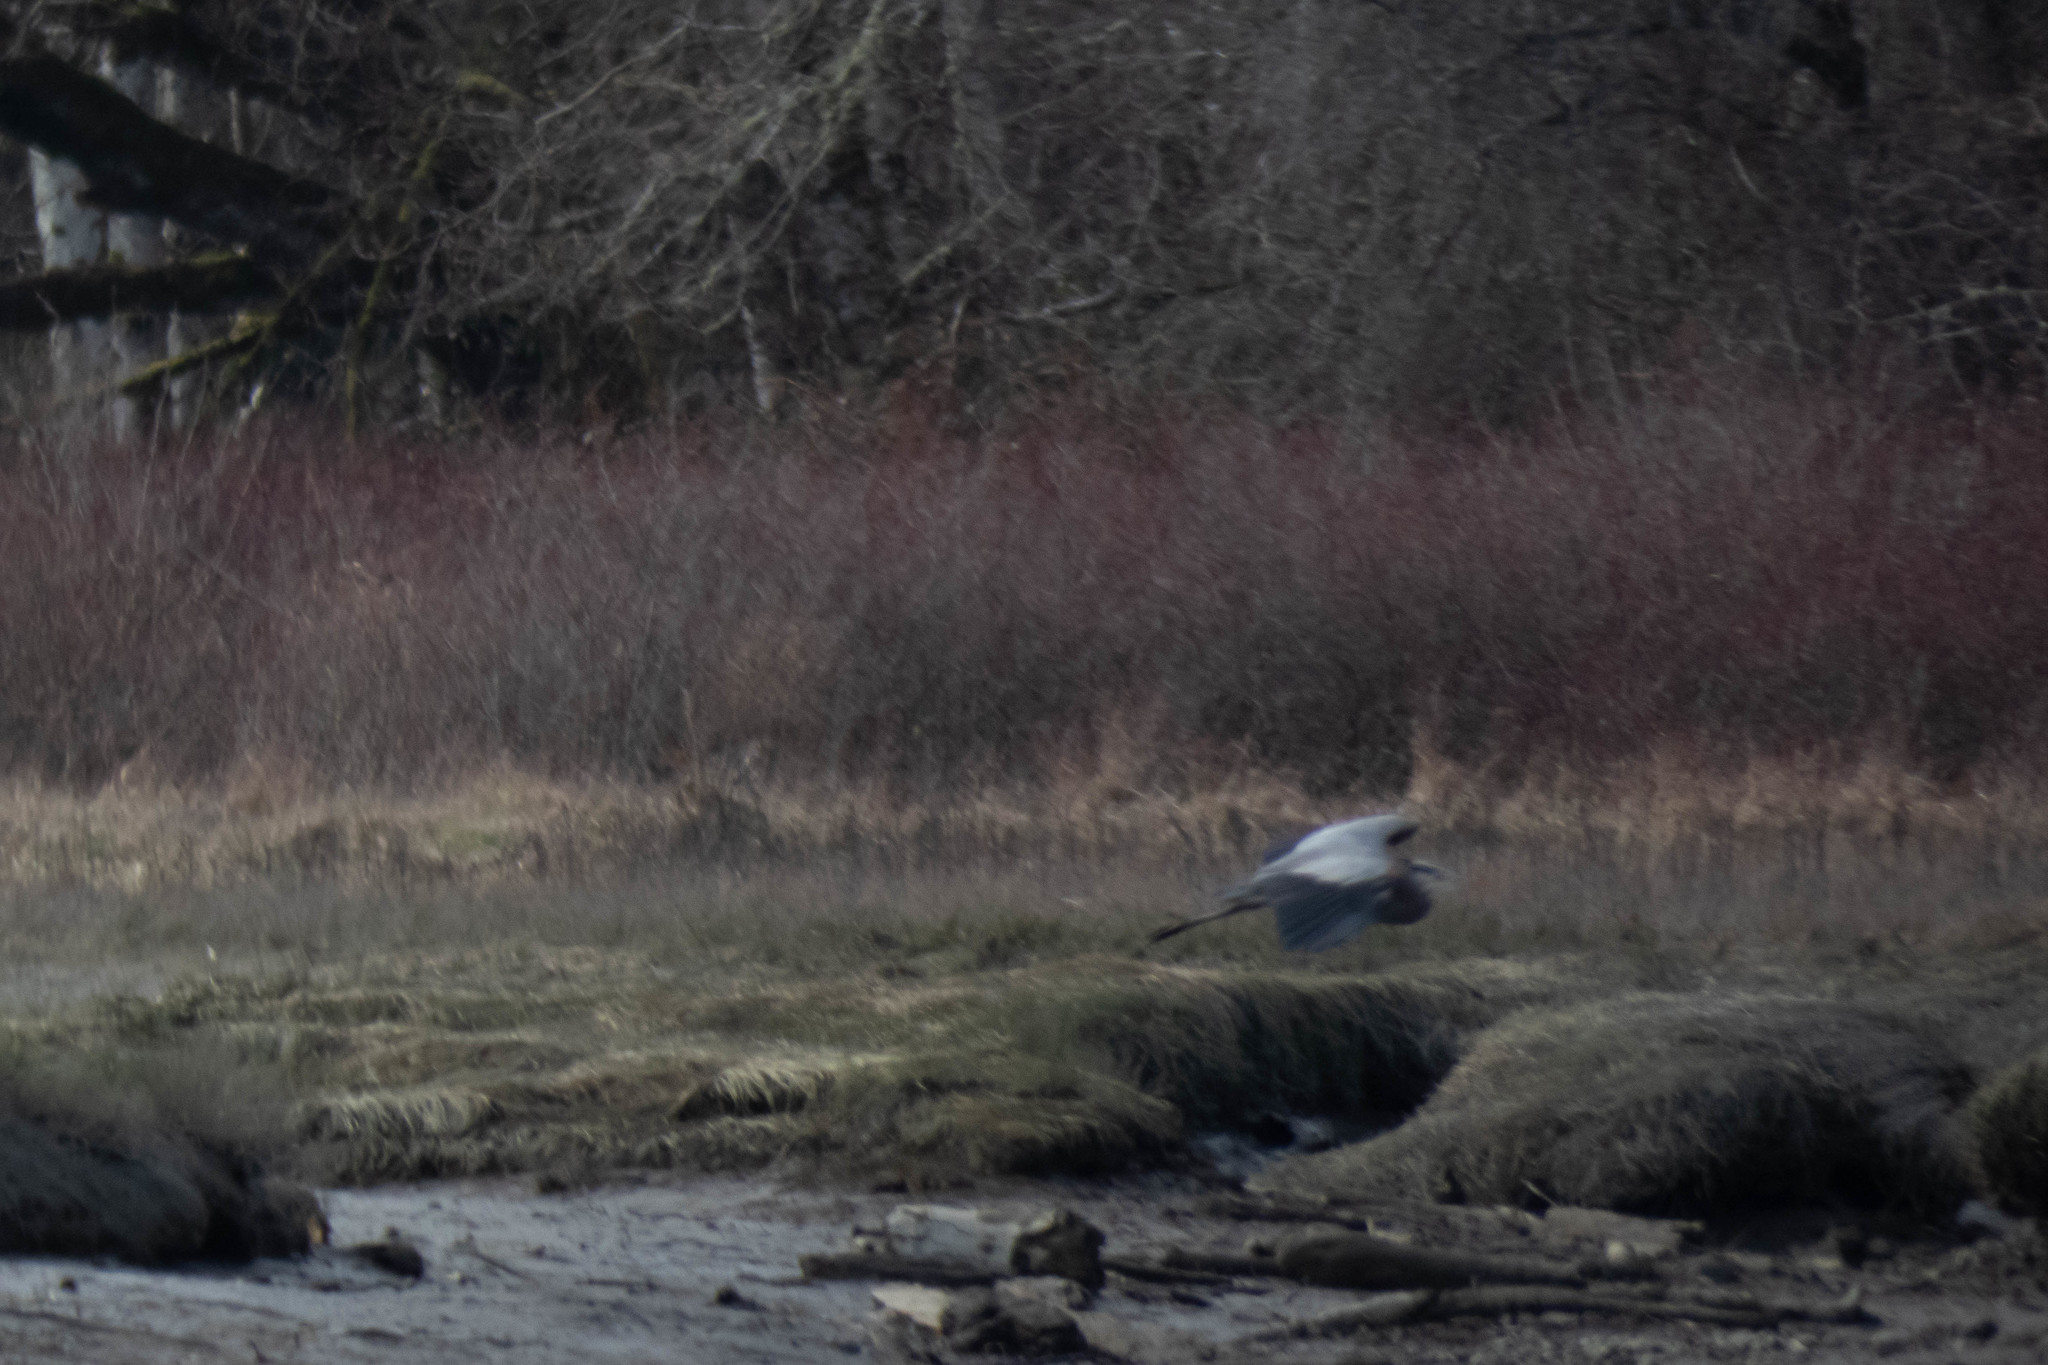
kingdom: Animalia
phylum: Chordata
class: Aves
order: Pelecaniformes
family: Ardeidae
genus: Ardea
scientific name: Ardea herodias
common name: Great blue heron
